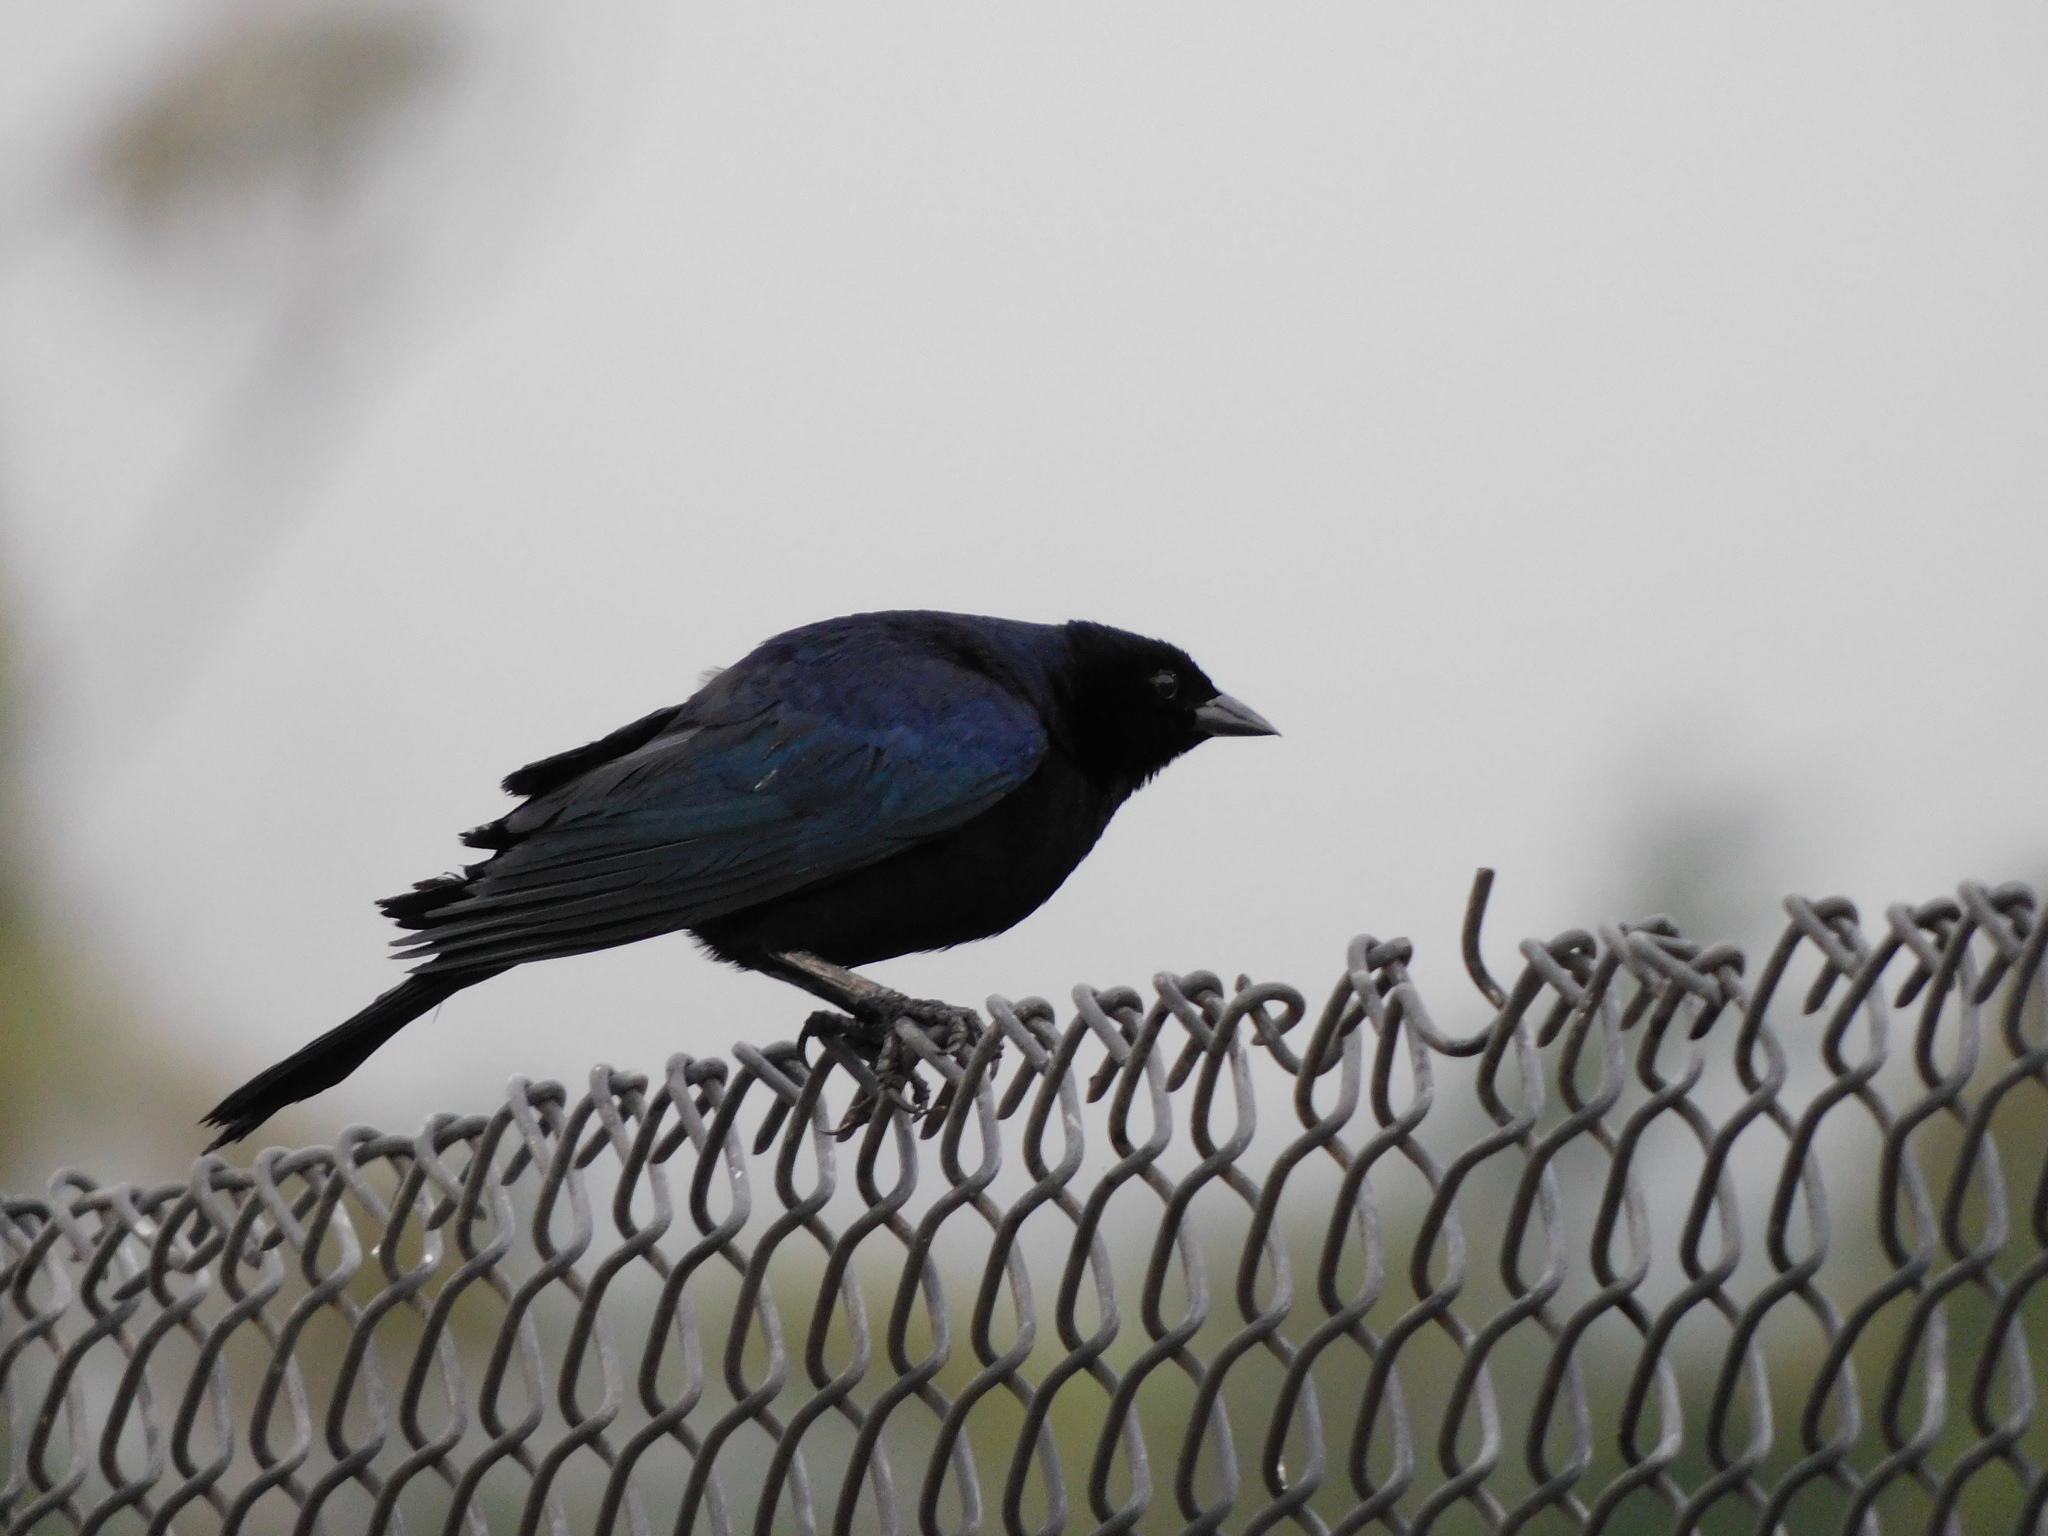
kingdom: Animalia
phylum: Chordata
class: Aves
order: Passeriformes
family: Icteridae
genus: Molothrus
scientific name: Molothrus bonariensis
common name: Shiny cowbird
